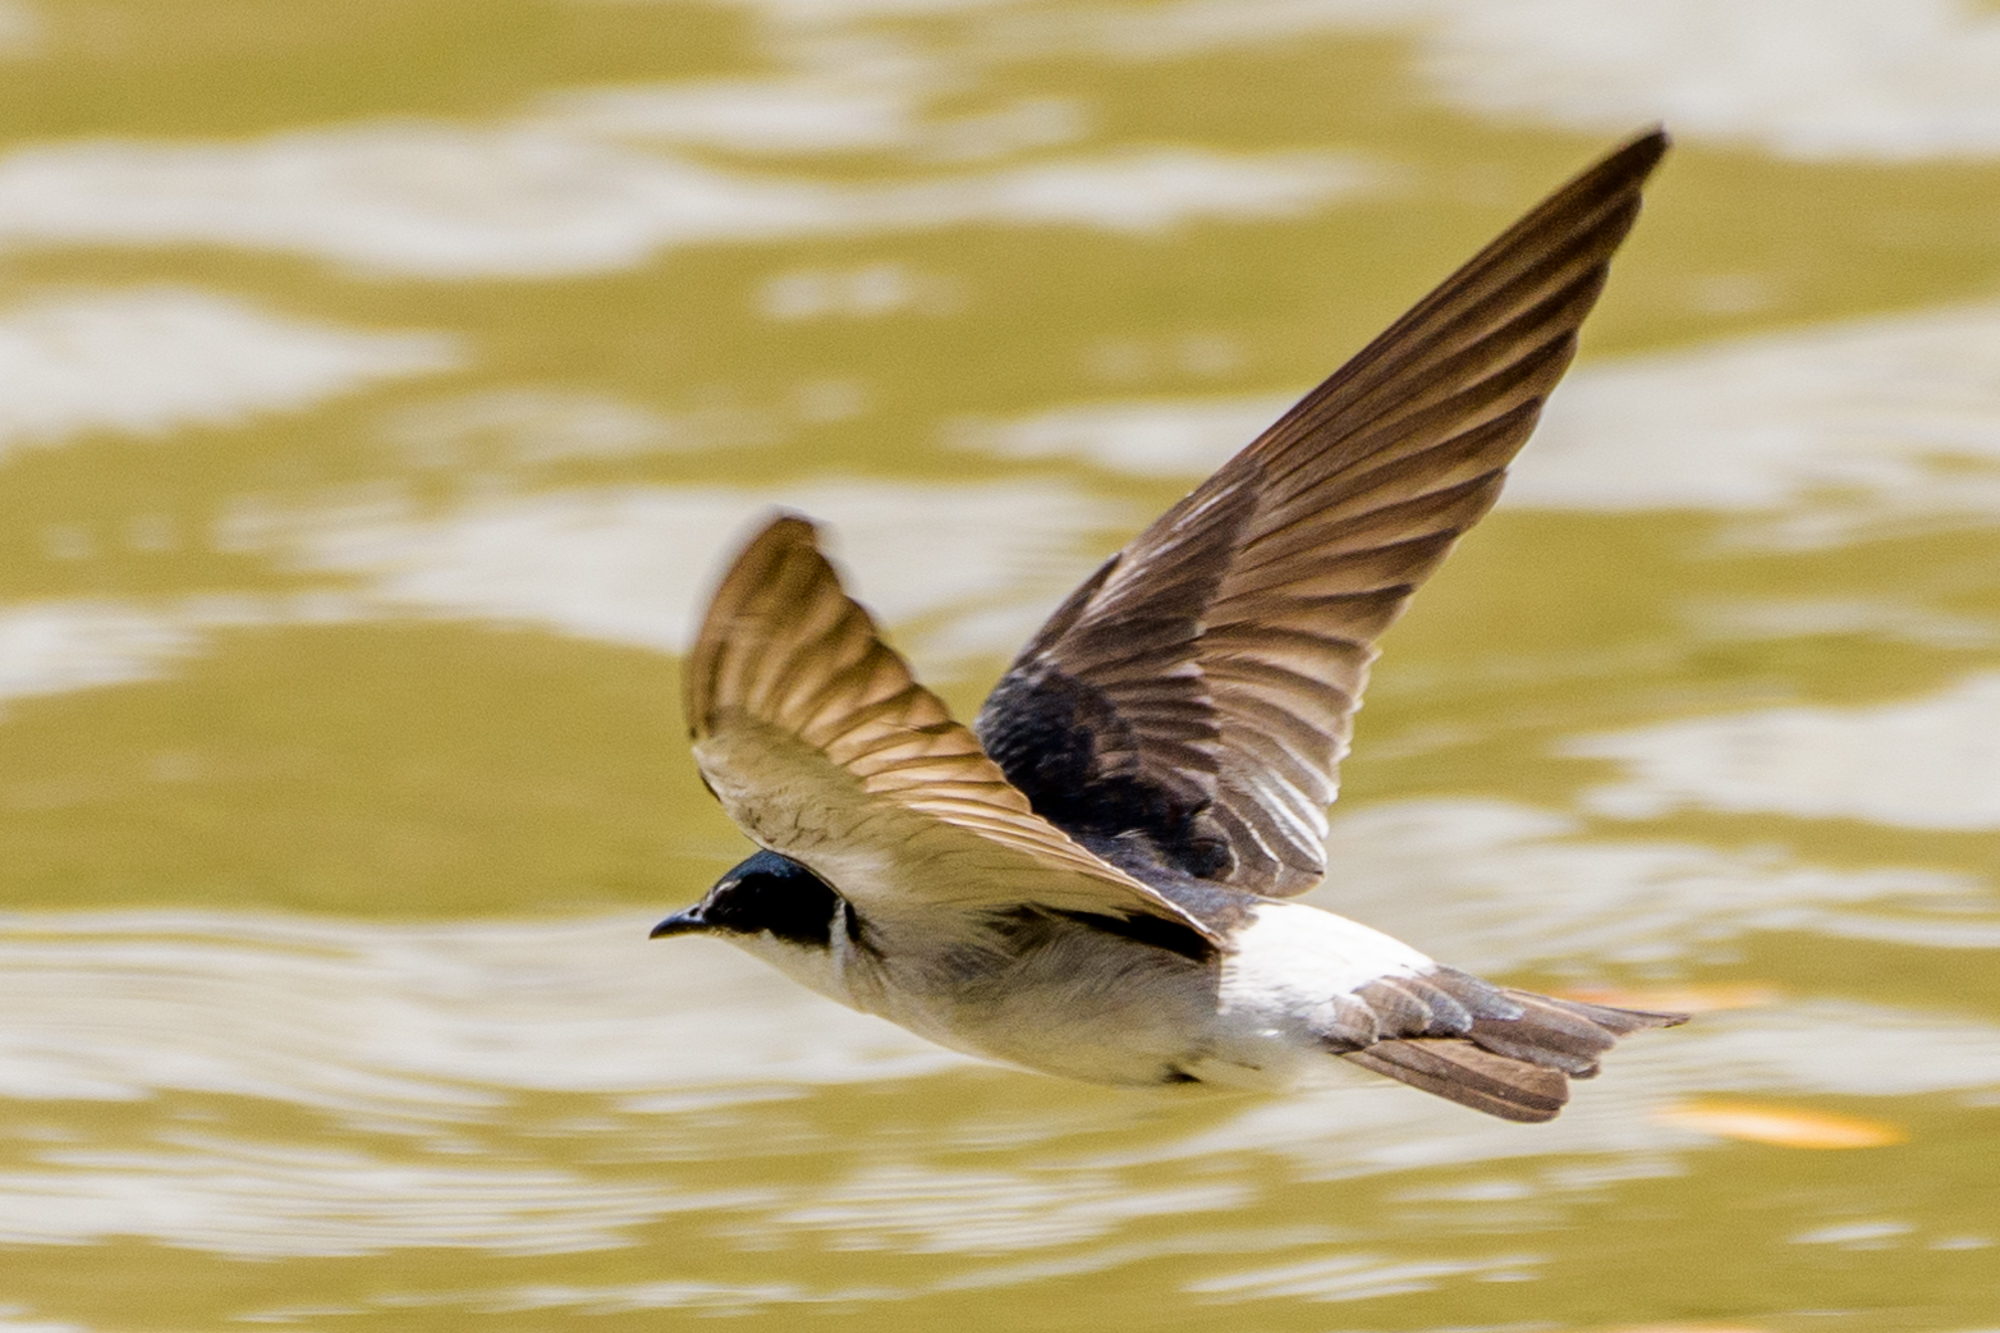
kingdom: Animalia
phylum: Chordata
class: Aves
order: Passeriformes
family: Hirundinidae
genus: Tachycineta
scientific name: Tachycineta albilinea
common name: Mangrove swallow
